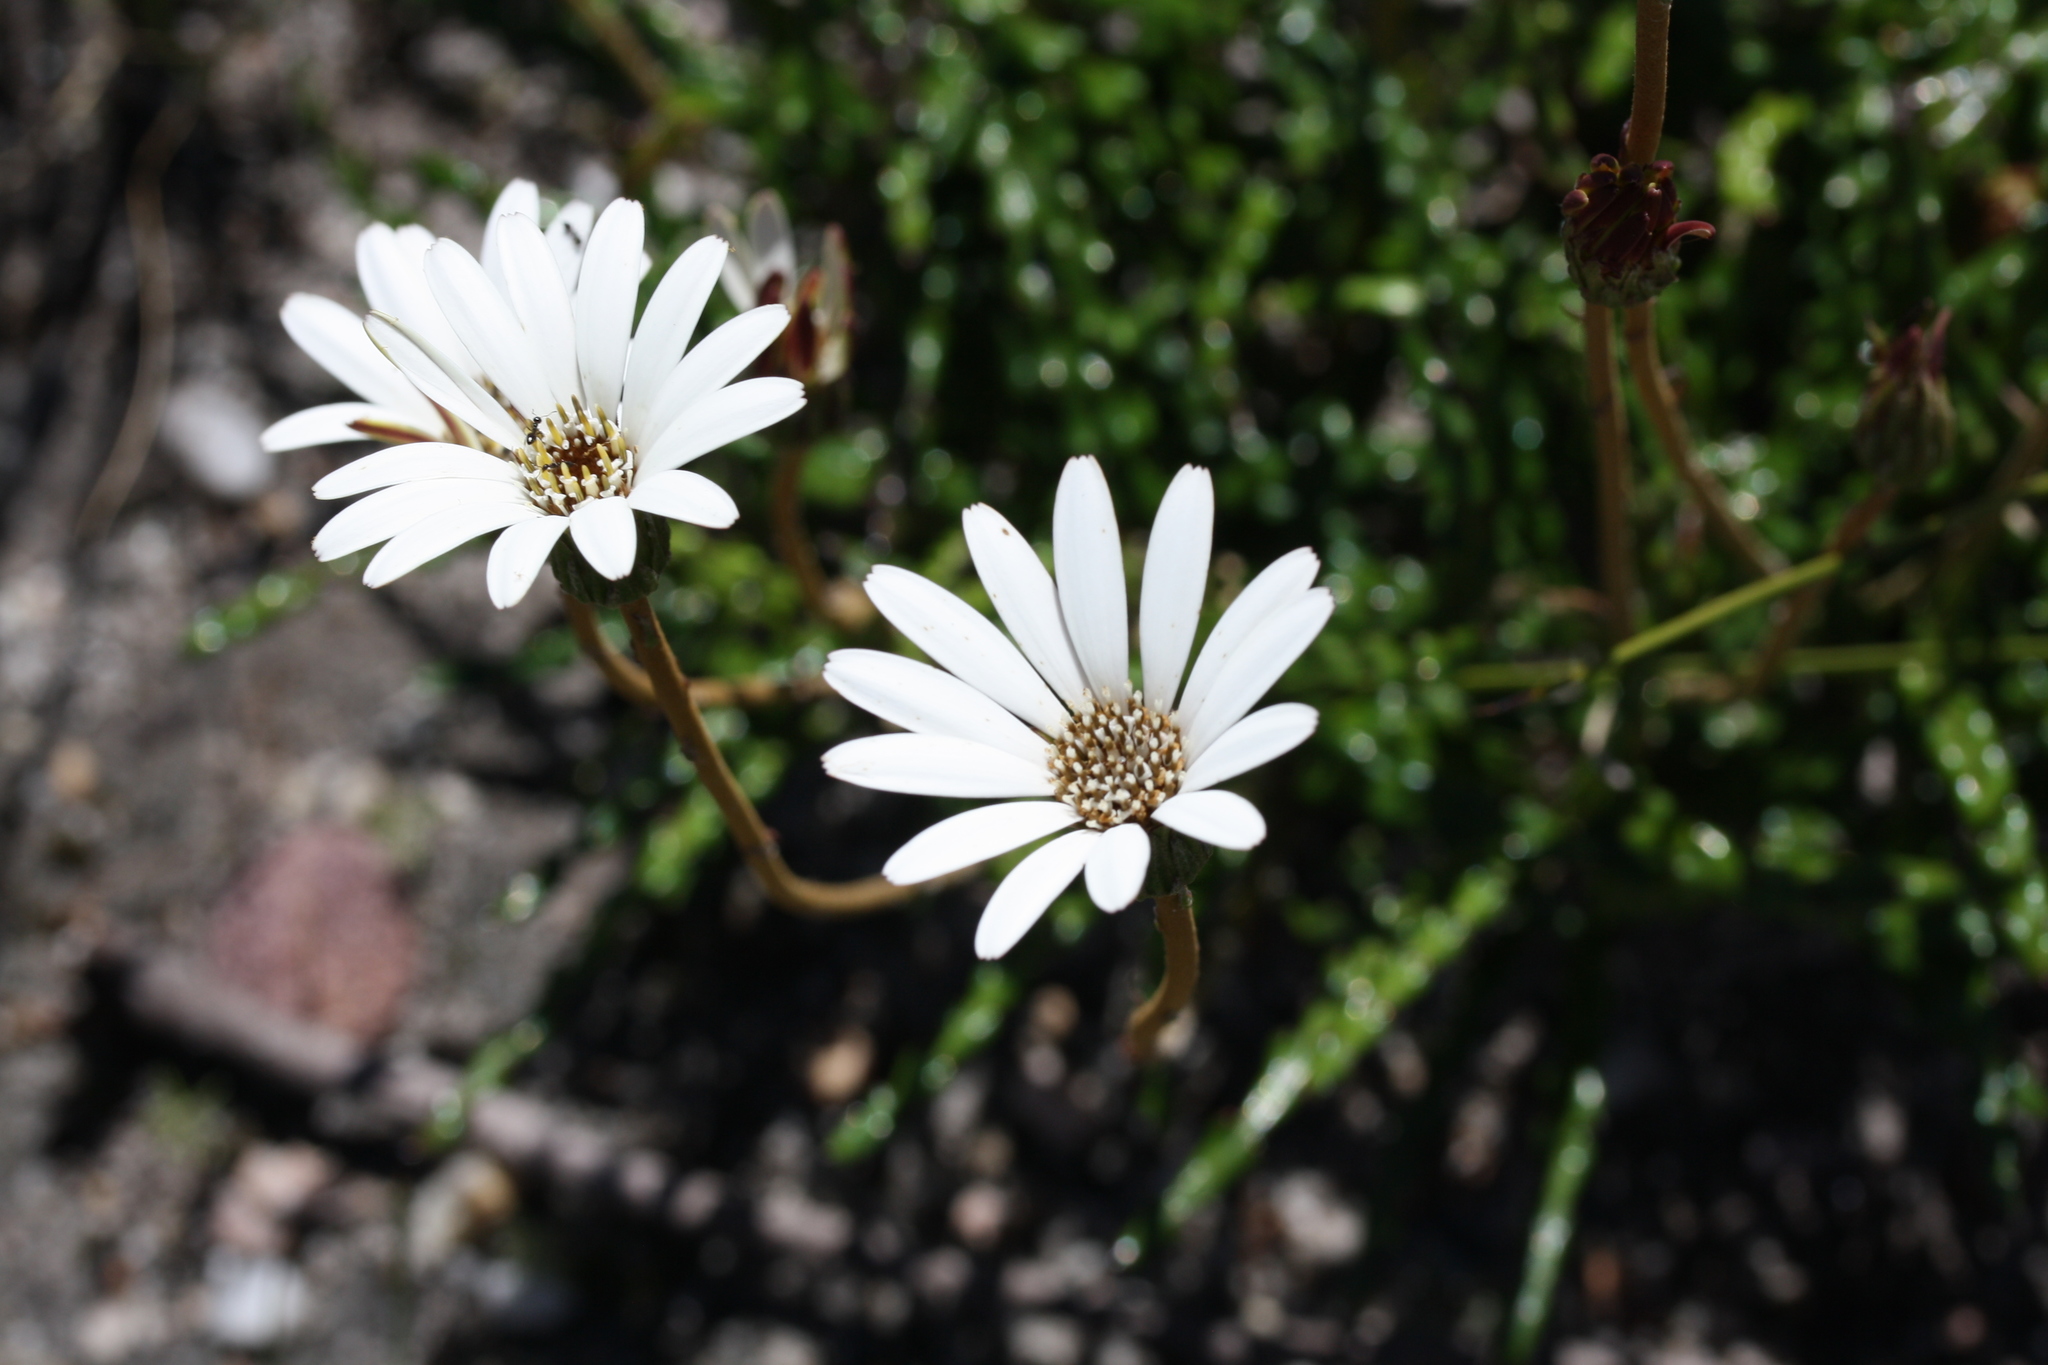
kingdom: Plantae
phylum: Tracheophyta
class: Magnoliopsida
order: Asterales
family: Asteraceae
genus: Gerbera
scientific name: Gerbera linnaei
